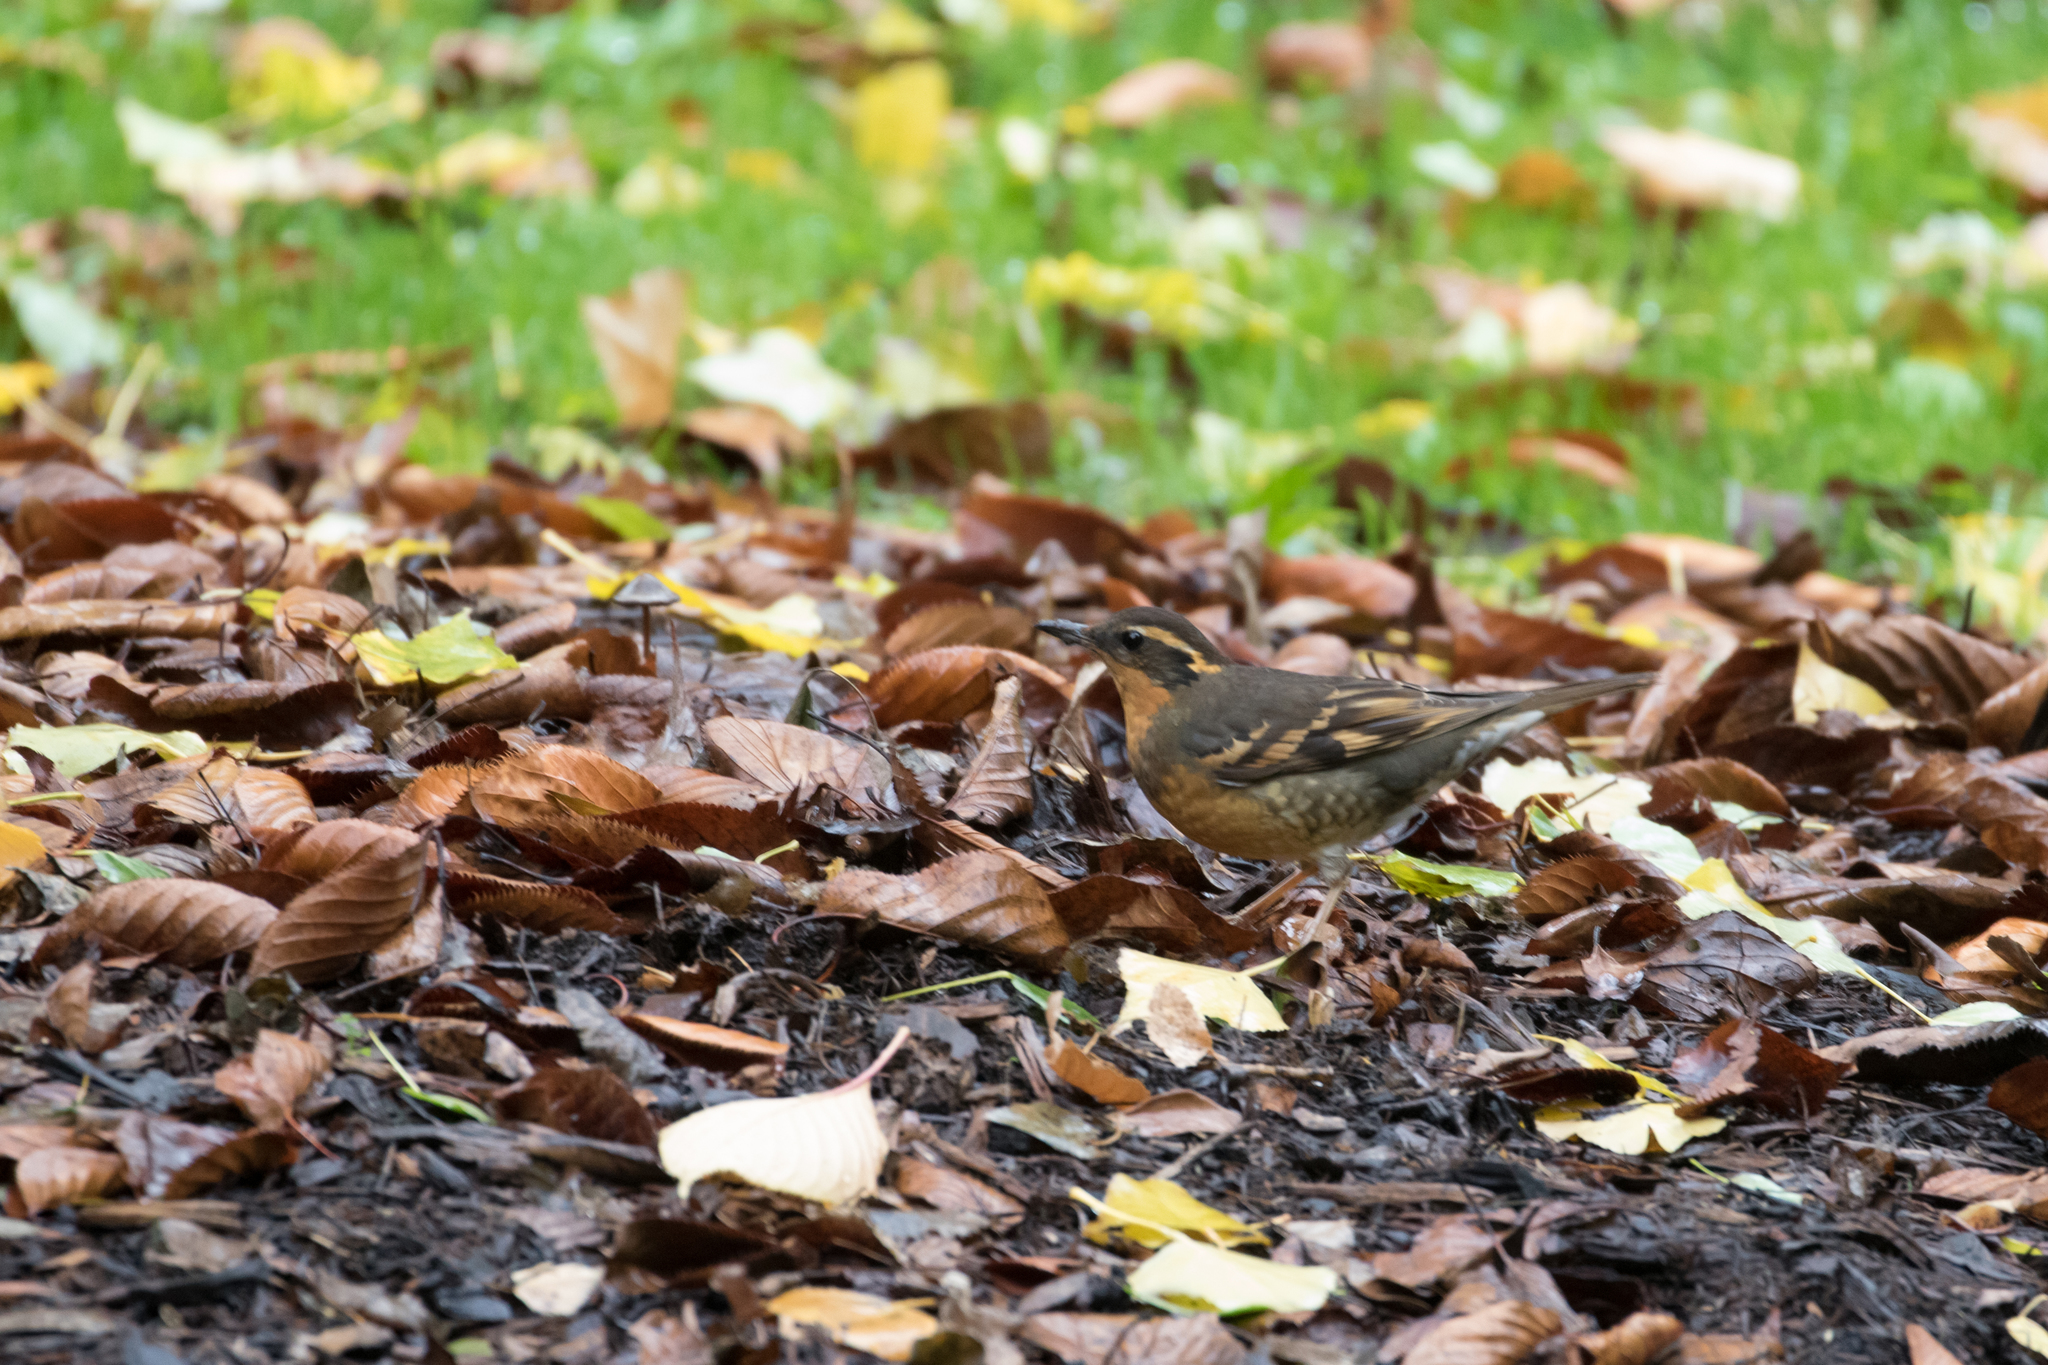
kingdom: Animalia
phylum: Chordata
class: Aves
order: Passeriformes
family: Turdidae
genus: Ixoreus
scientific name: Ixoreus naevius
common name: Varied thrush
